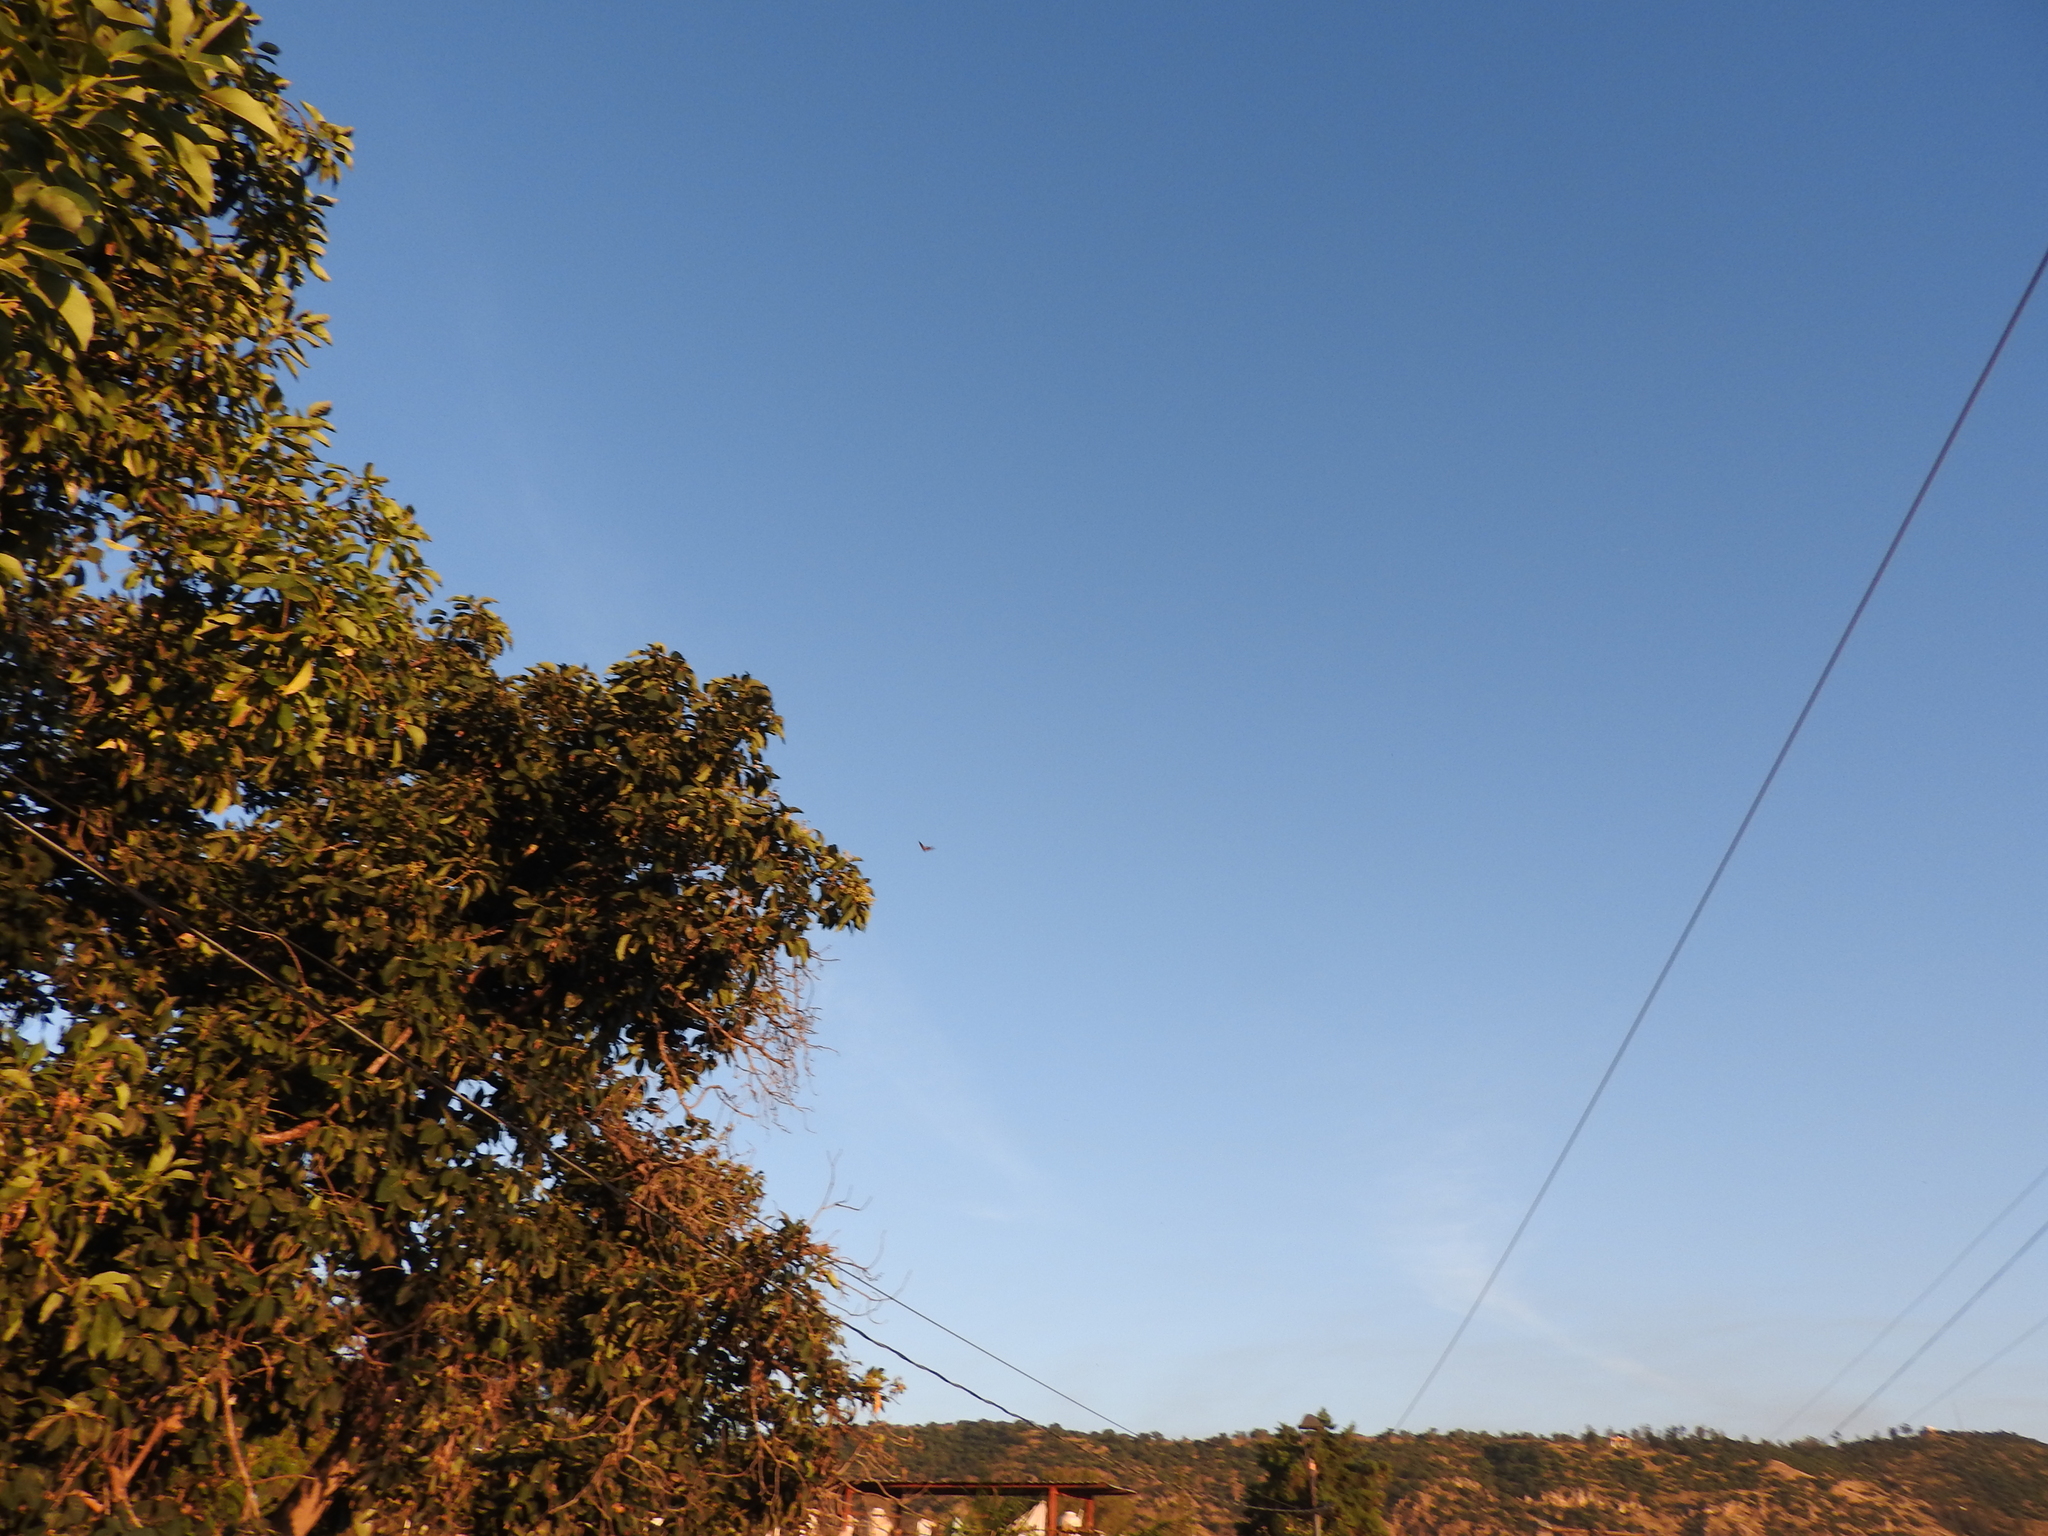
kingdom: Animalia
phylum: Arthropoda
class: Insecta
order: Lepidoptera
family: Nymphalidae
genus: Danaus
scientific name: Danaus plexippus
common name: Monarch
